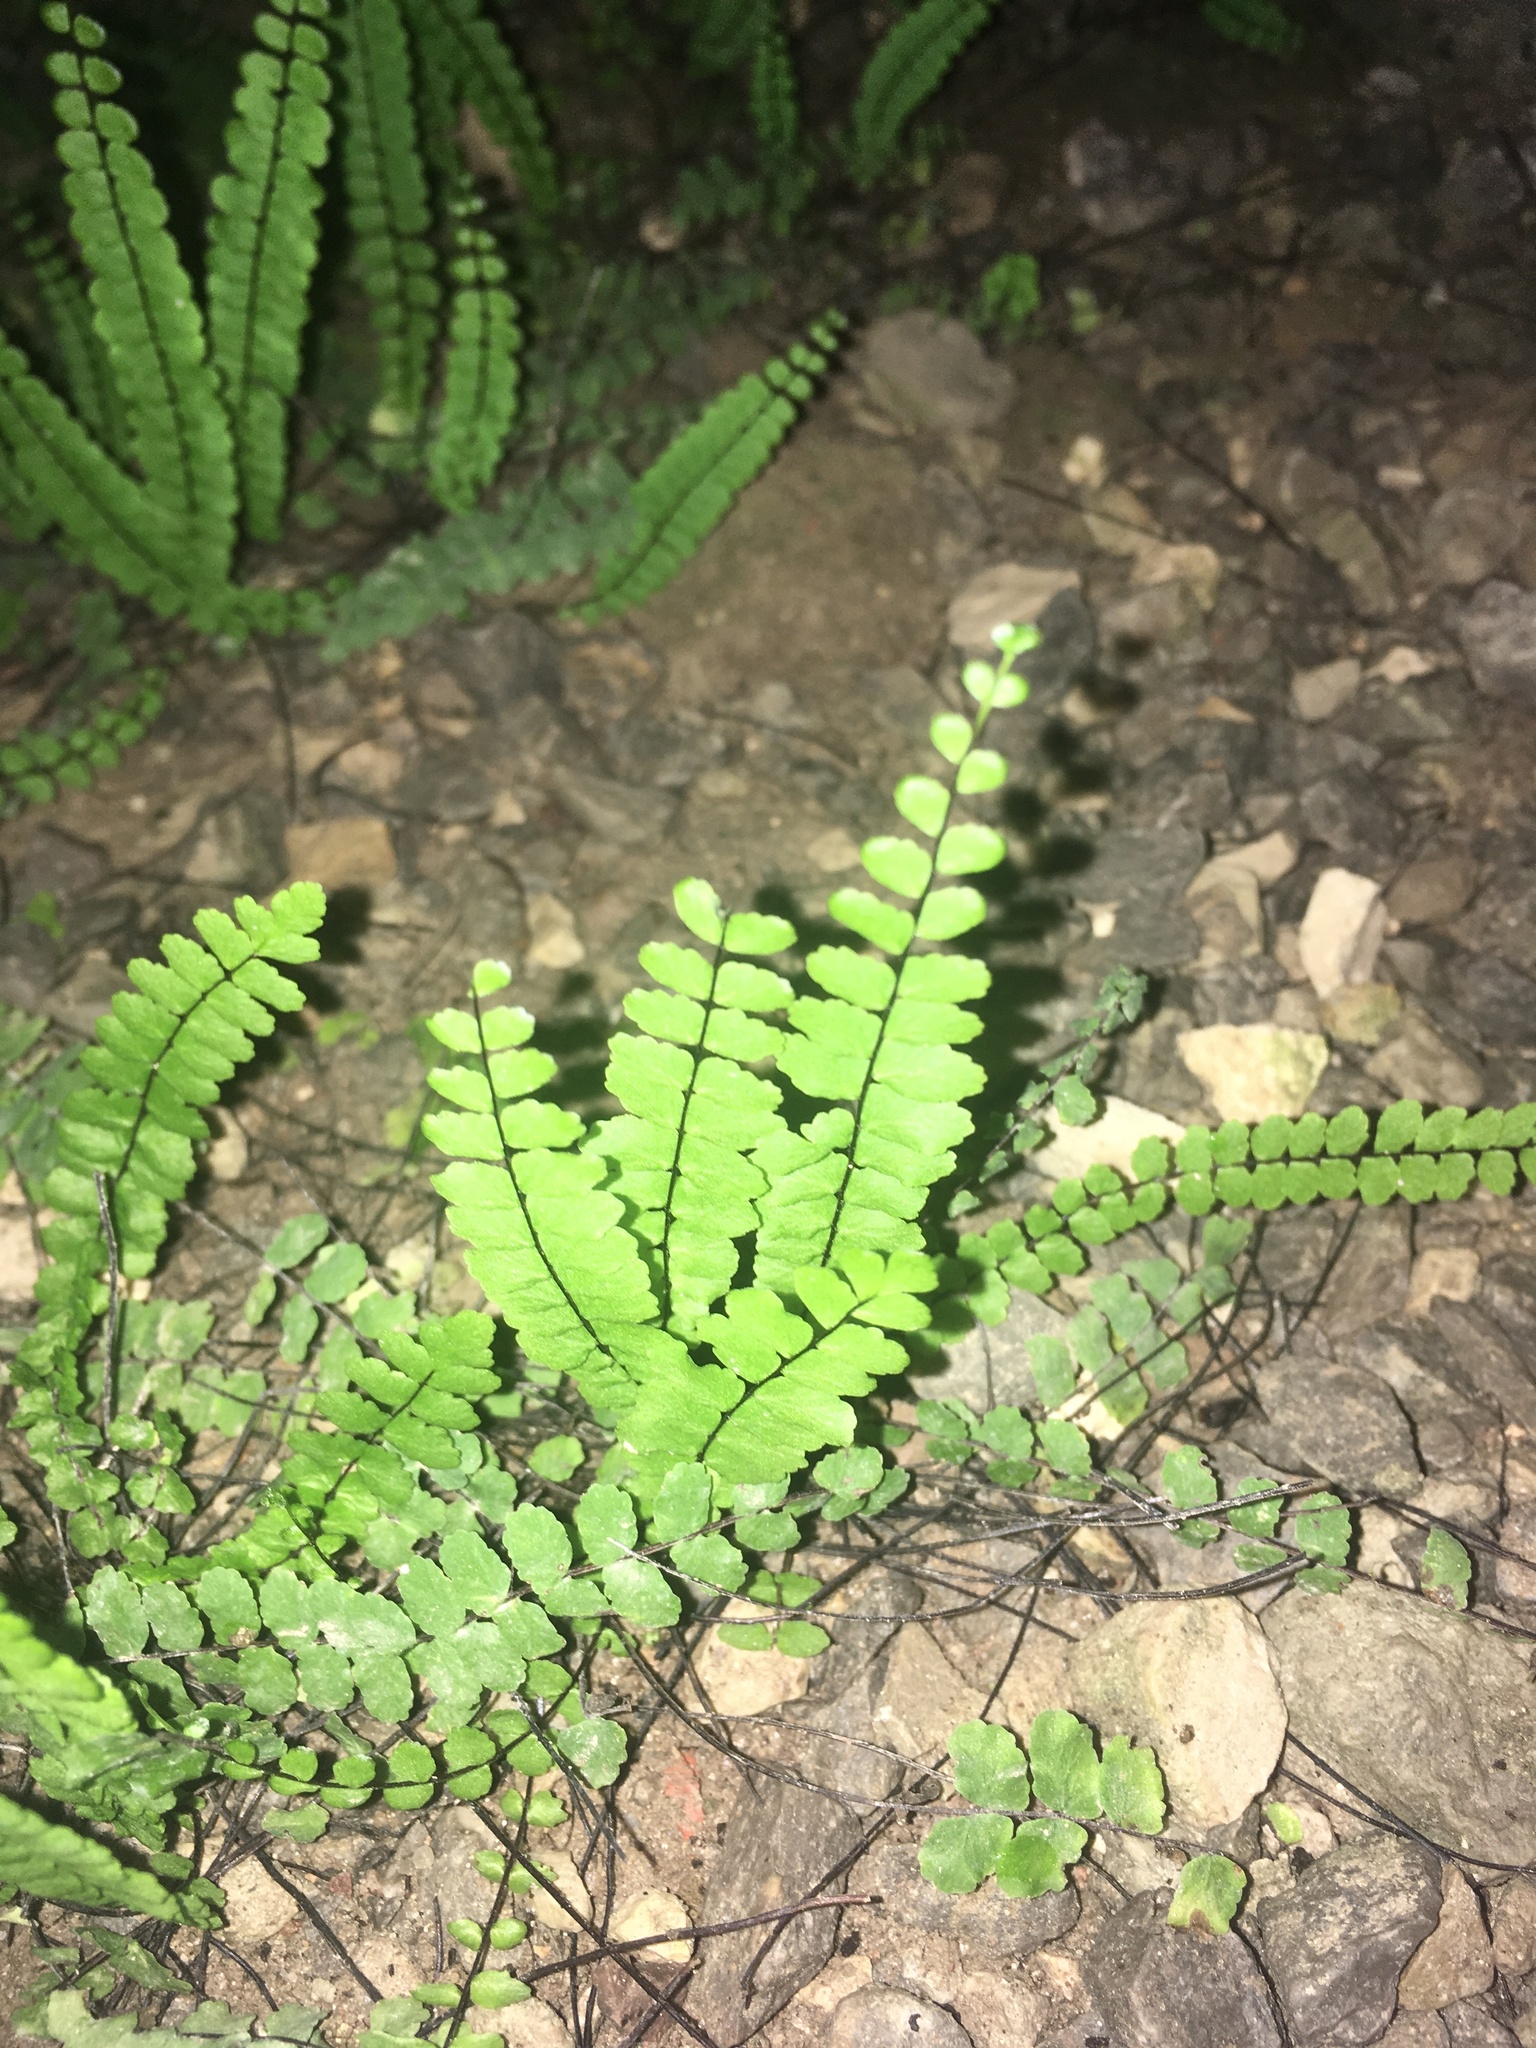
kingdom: Plantae
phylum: Tracheophyta
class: Polypodiopsida
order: Polypodiales
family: Aspleniaceae
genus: Asplenium
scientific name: Asplenium trichomanes
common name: Maidenhair spleenwort
